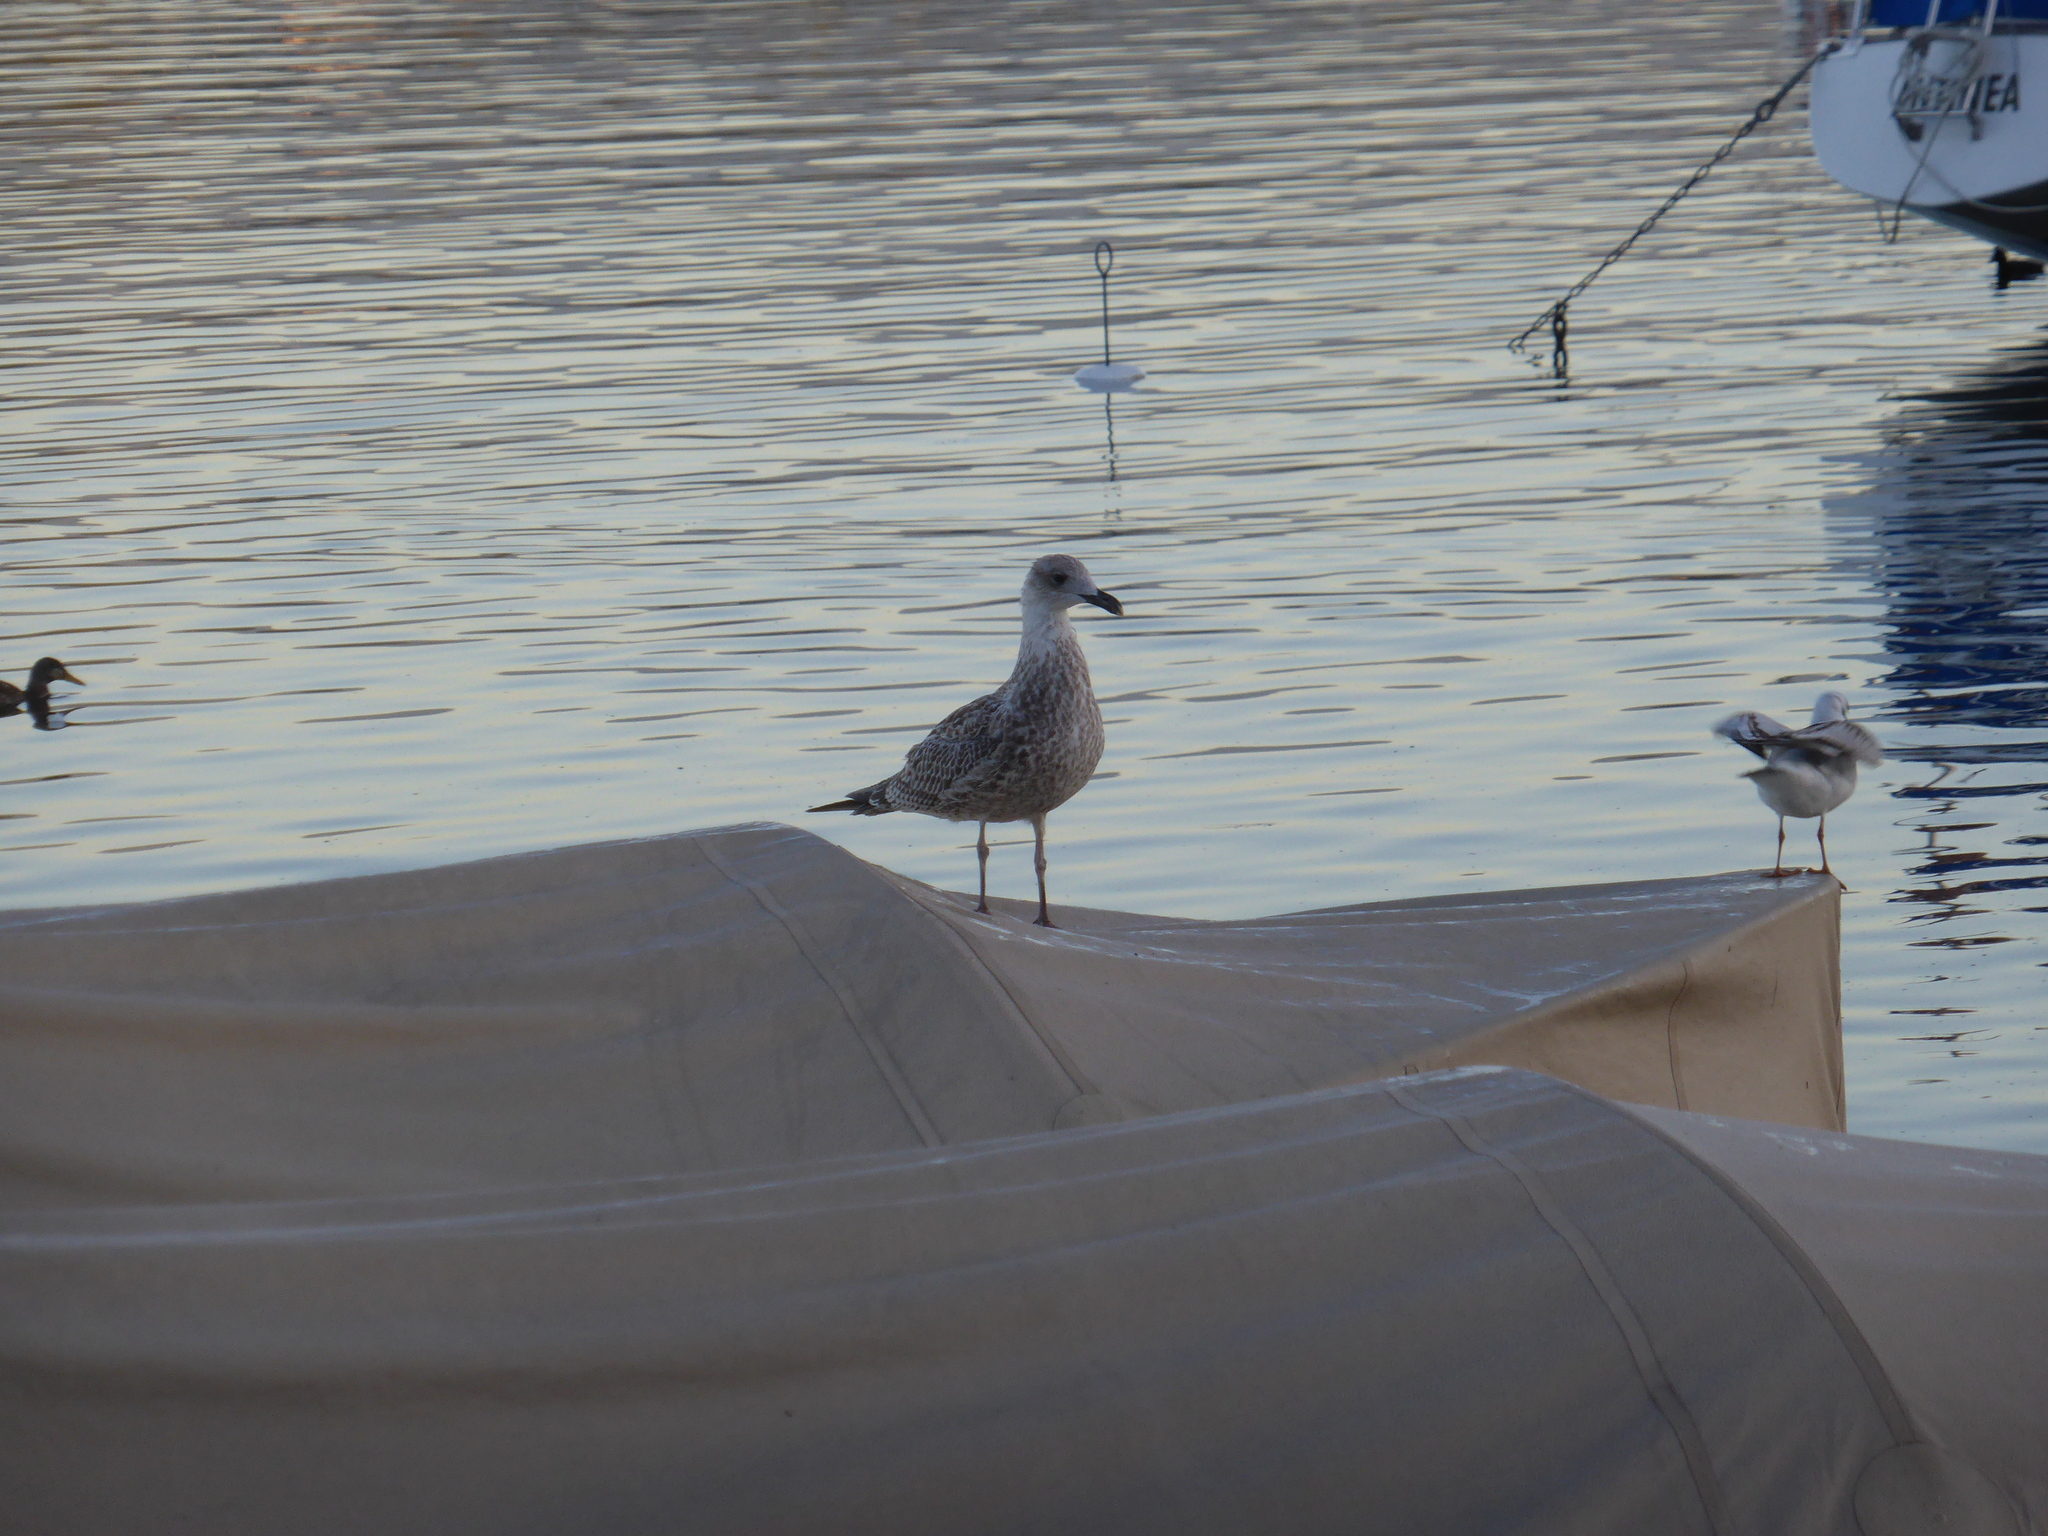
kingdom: Animalia
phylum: Chordata
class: Aves
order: Charadriiformes
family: Laridae
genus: Larus
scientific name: Larus michahellis
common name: Yellow-legged gull
